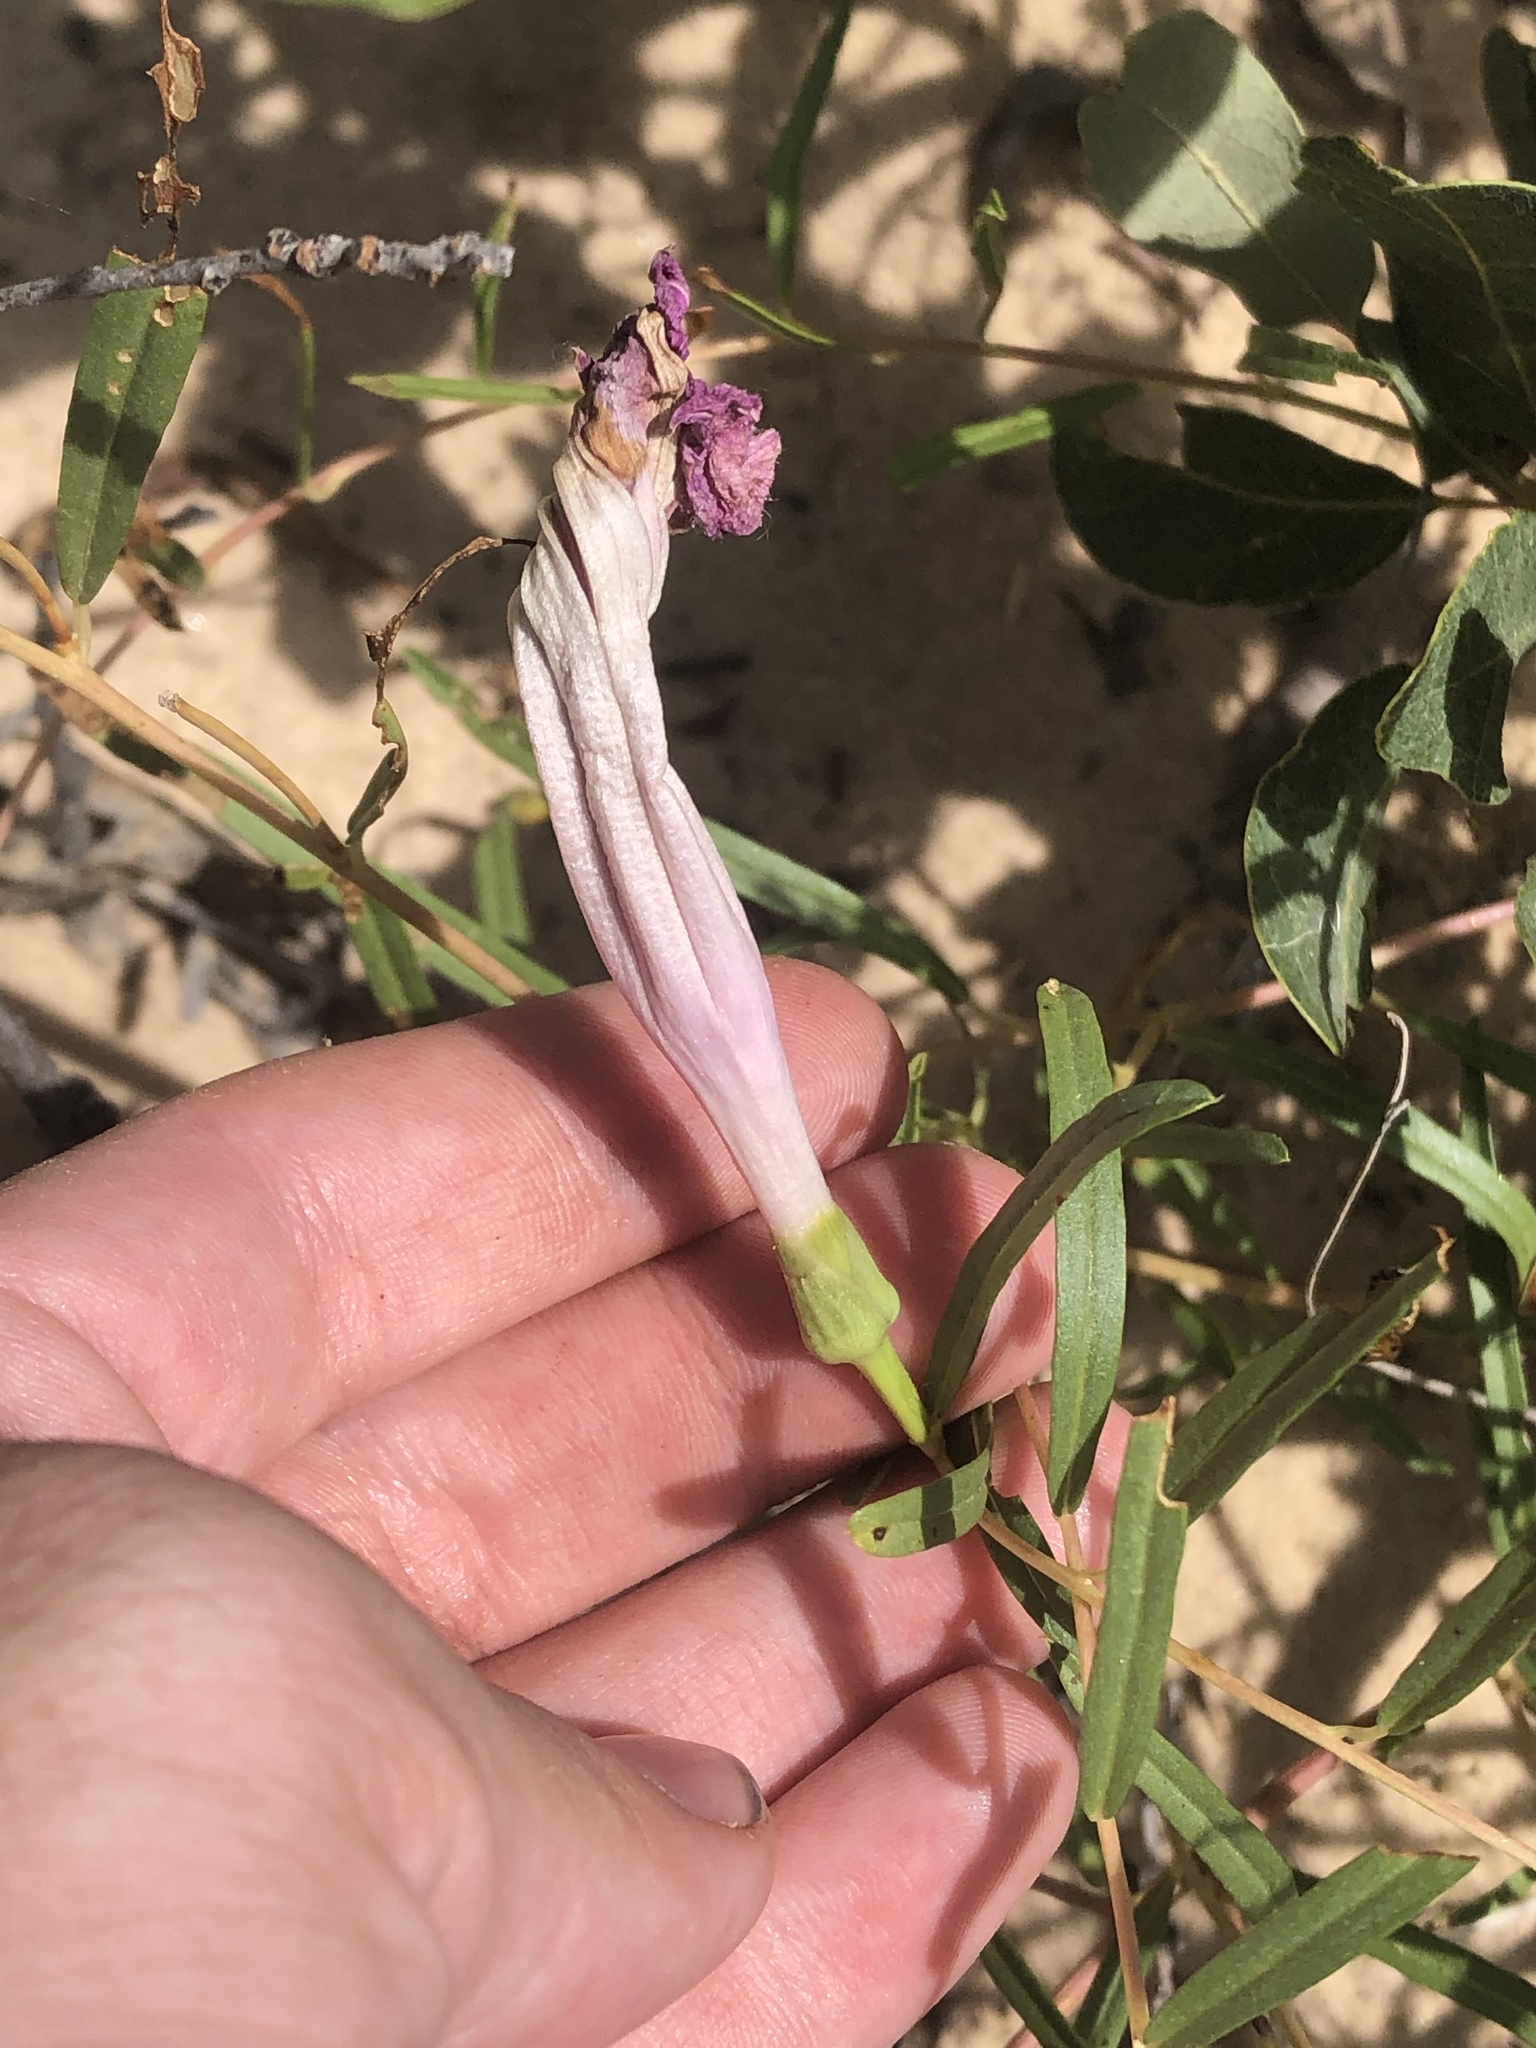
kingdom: Plantae
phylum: Tracheophyta
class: Magnoliopsida
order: Solanales
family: Convolvulaceae
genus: Ipomoea
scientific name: Ipomoea leptophylla
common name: Bush moonflower
